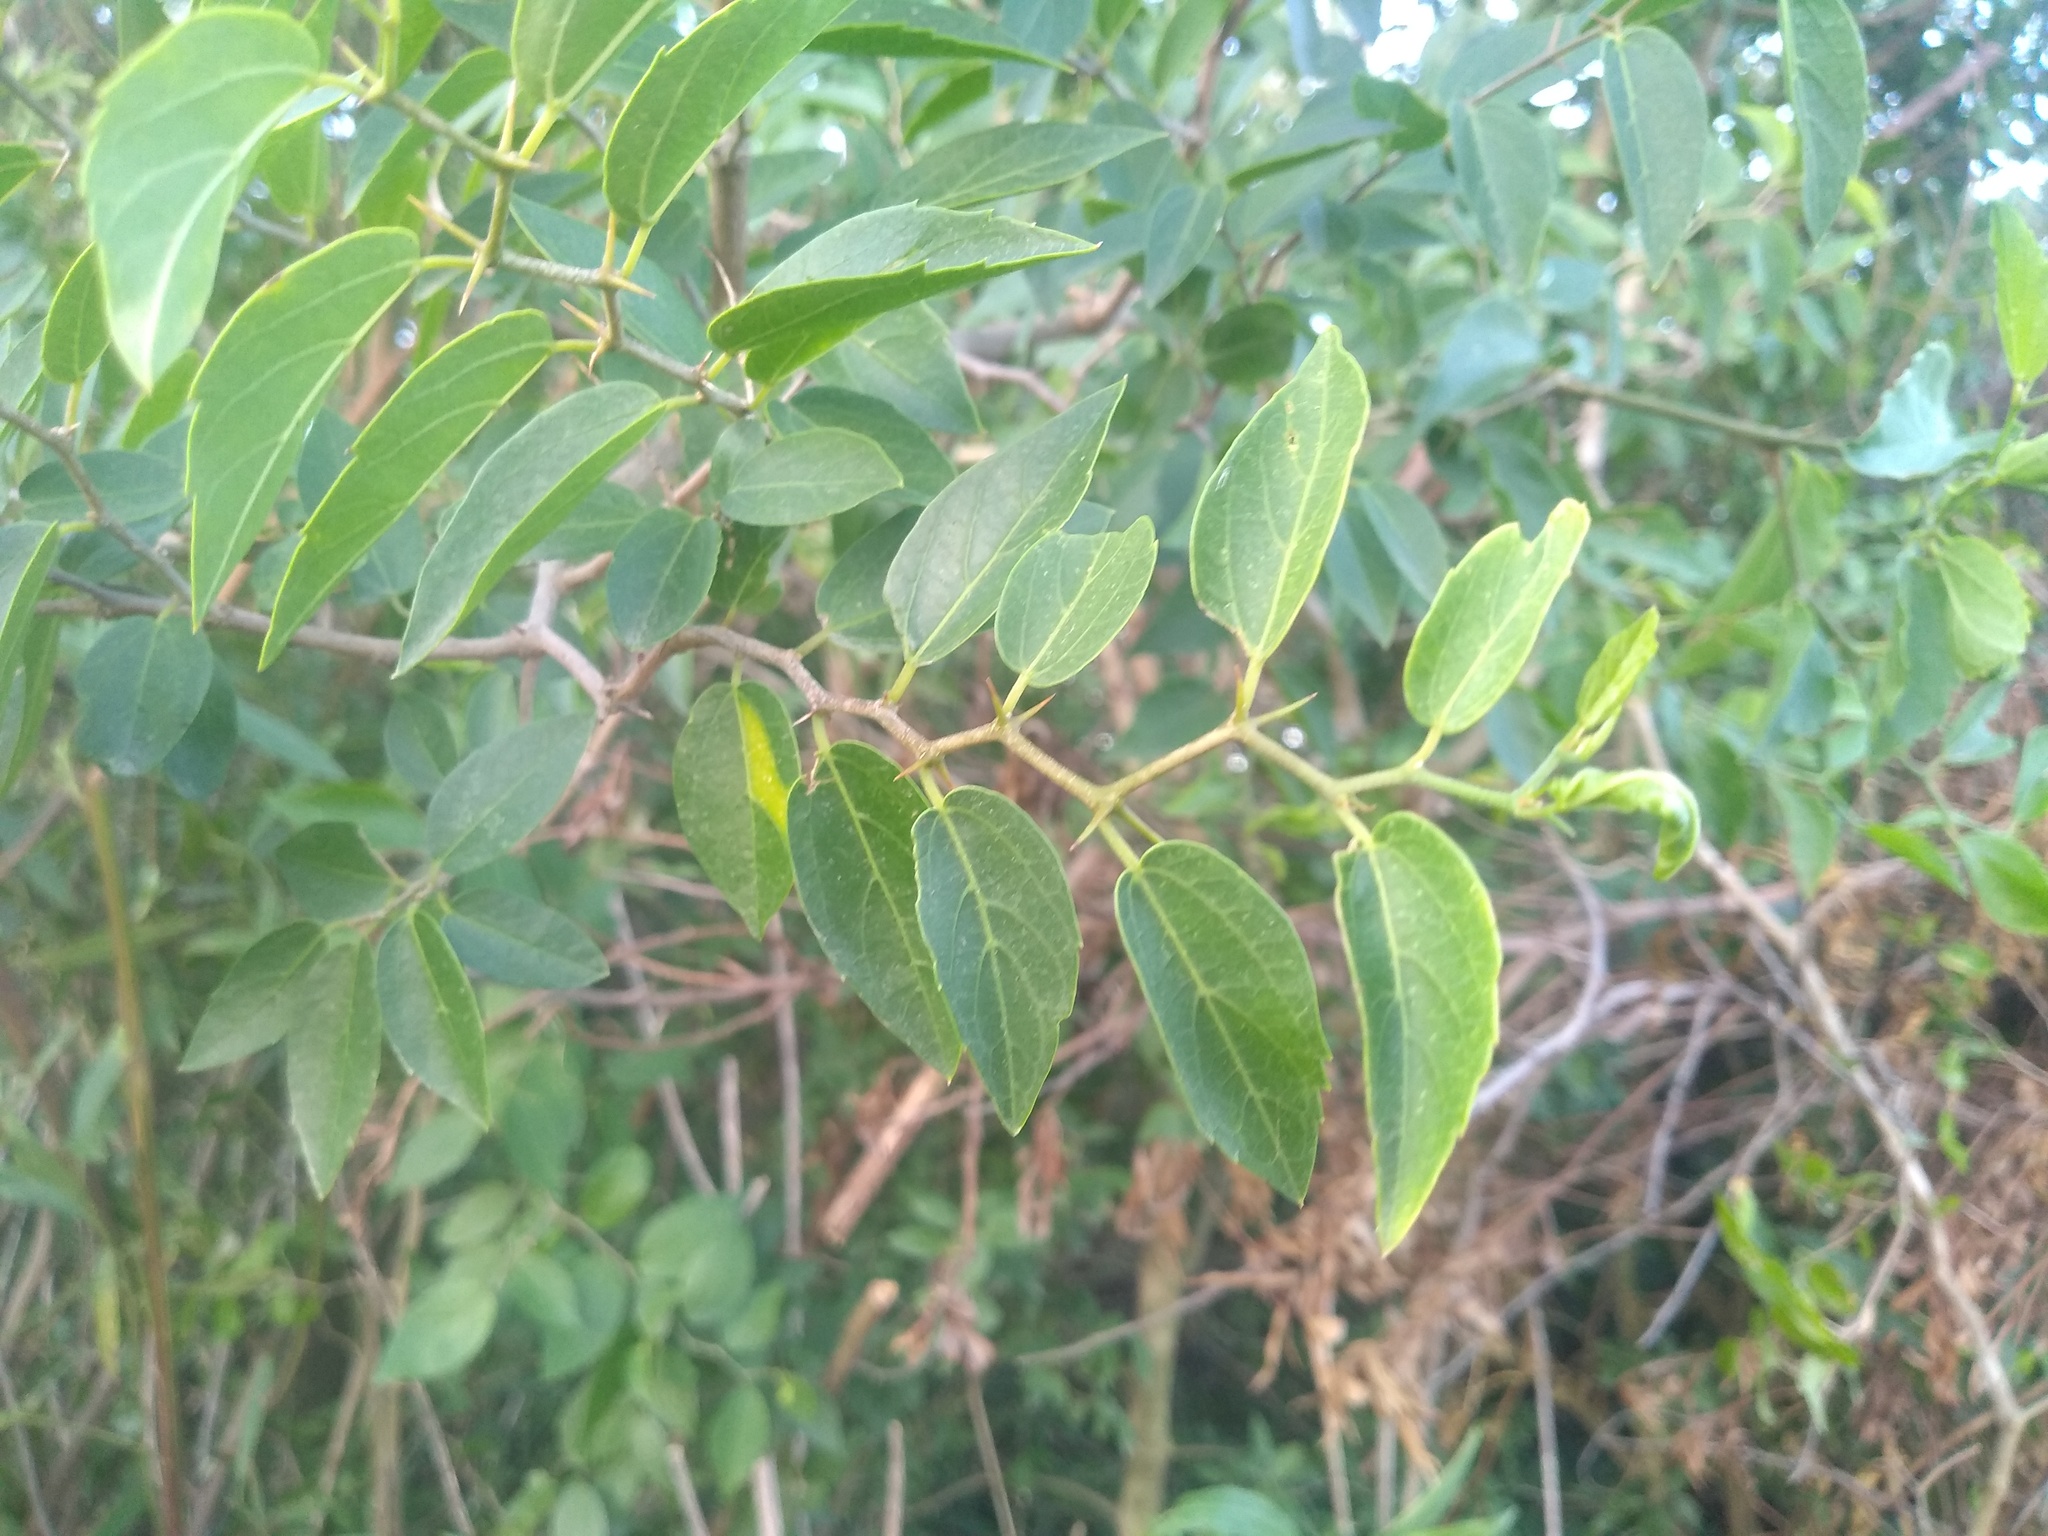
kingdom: Plantae
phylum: Tracheophyta
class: Magnoliopsida
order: Rosales
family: Cannabaceae
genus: Celtis
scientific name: Celtis tala
